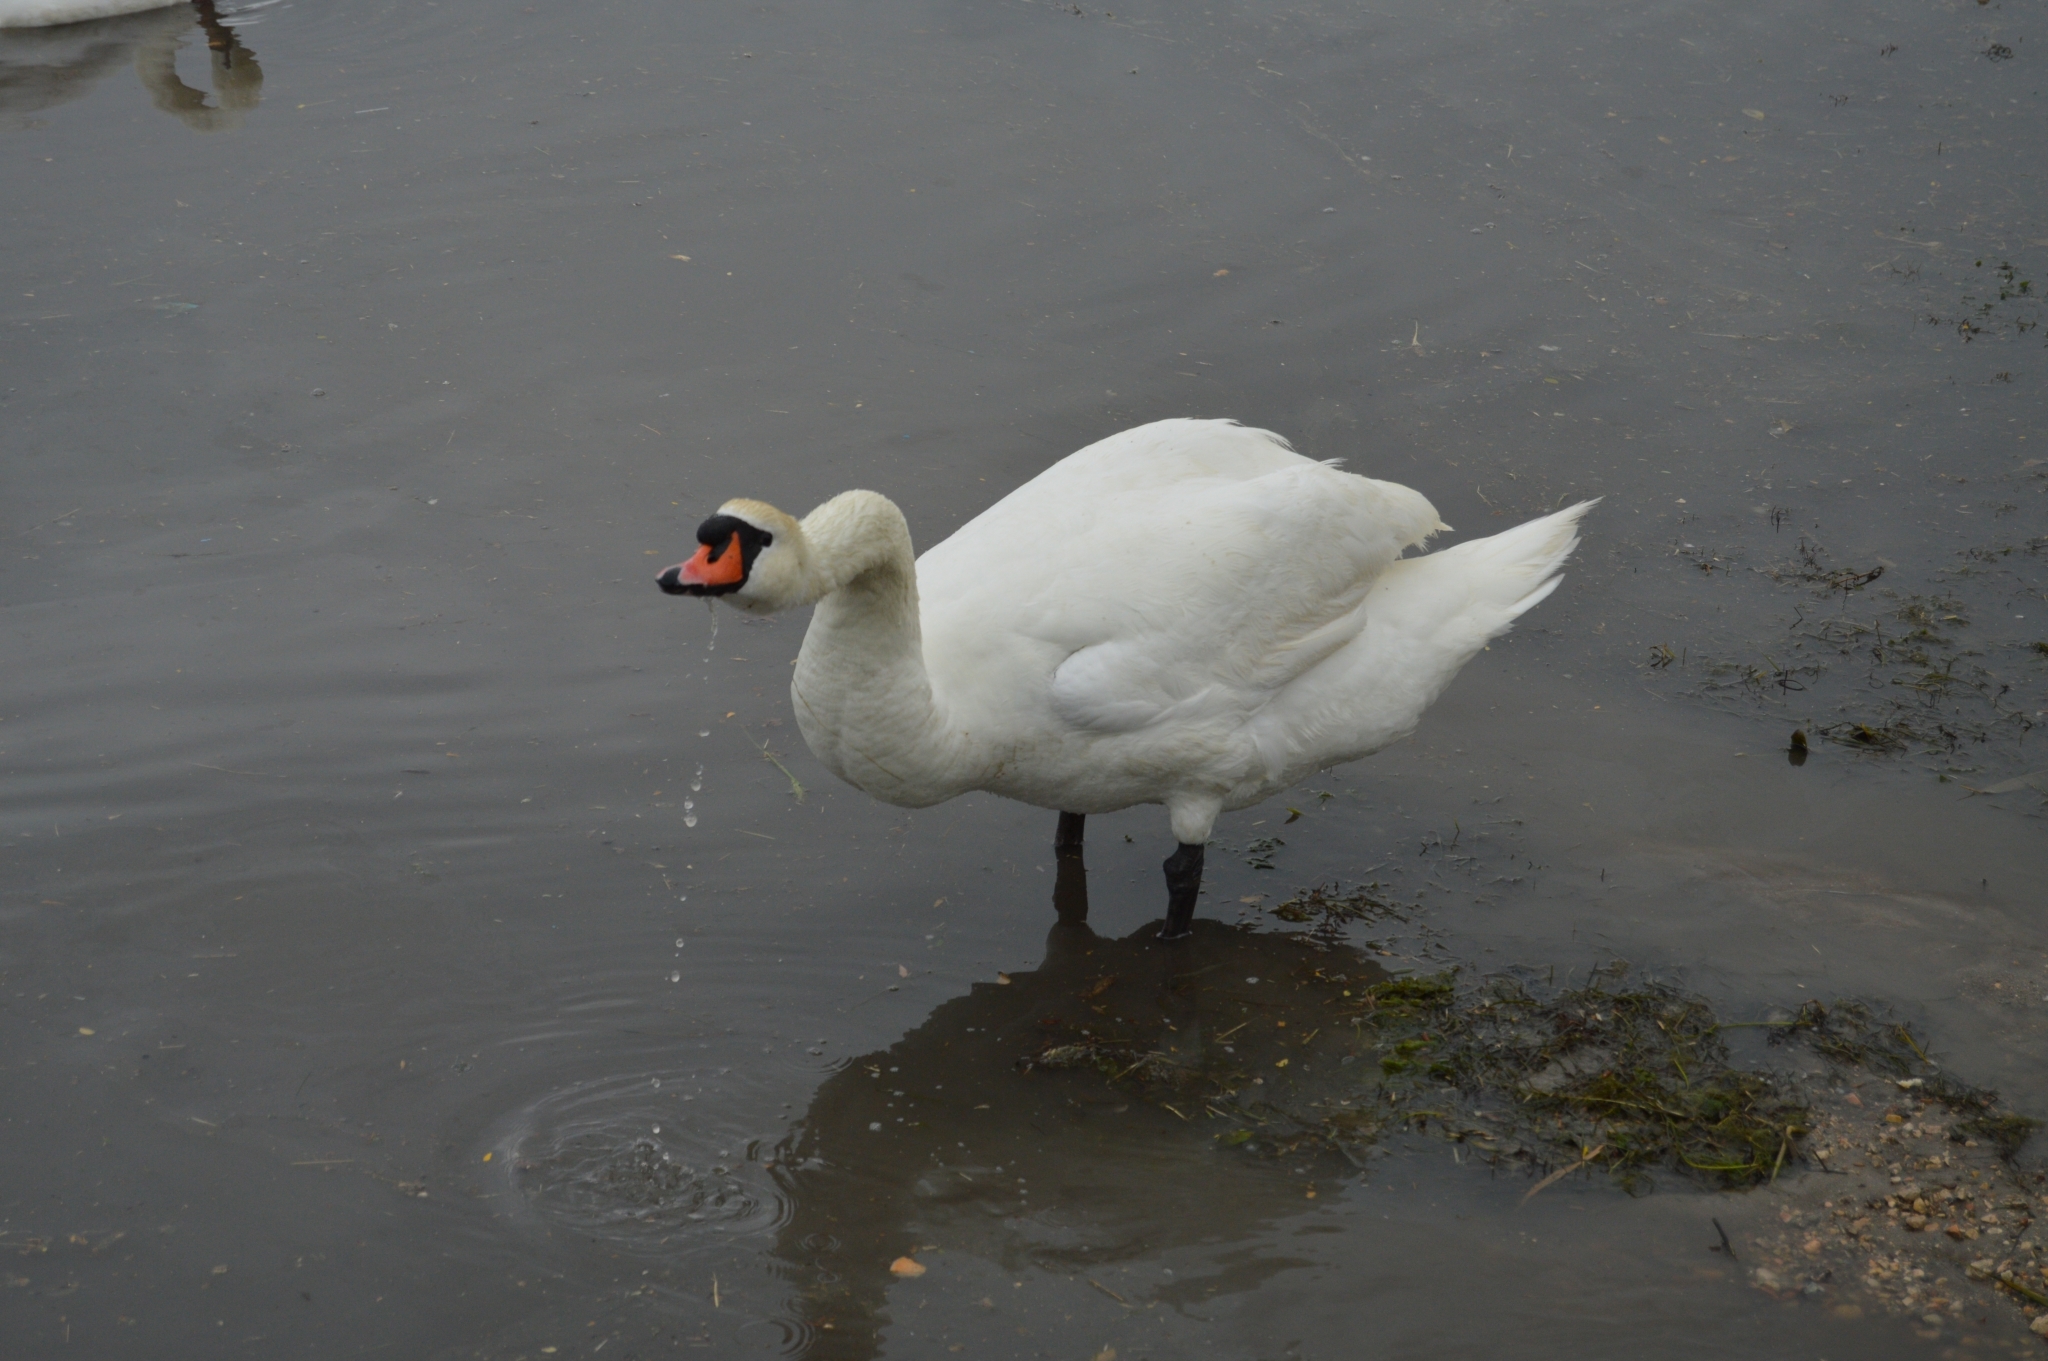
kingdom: Animalia
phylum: Chordata
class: Aves
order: Anseriformes
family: Anatidae
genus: Cygnus
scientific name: Cygnus olor
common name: Mute swan
